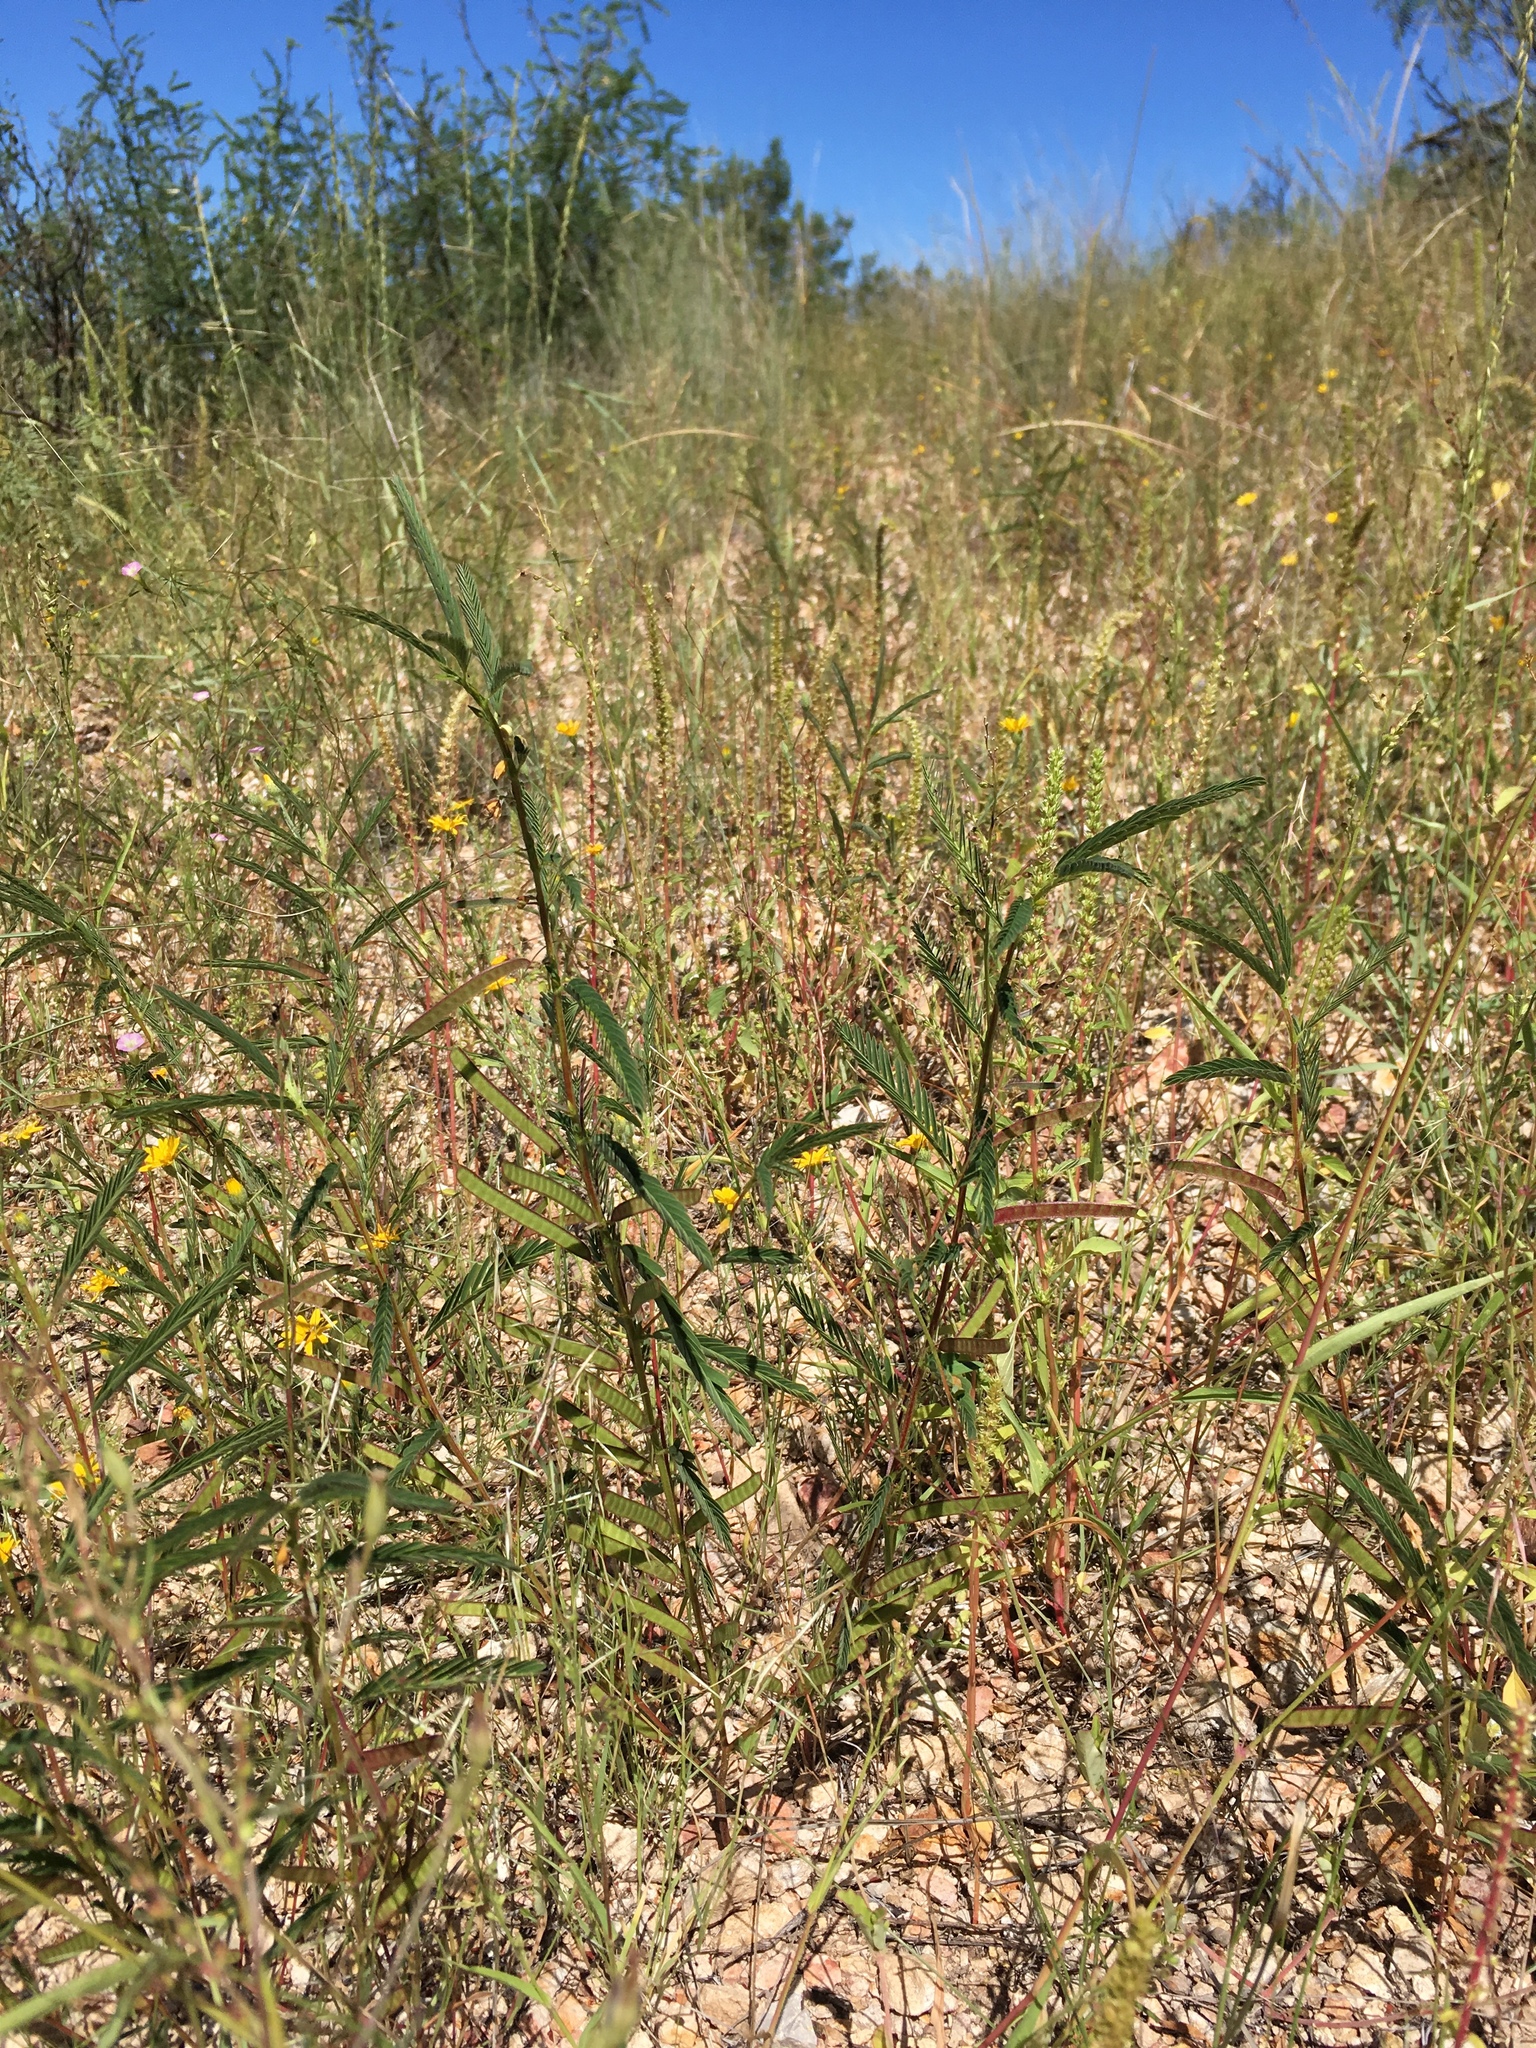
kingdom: Plantae
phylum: Tracheophyta
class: Magnoliopsida
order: Fabales
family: Fabaceae
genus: Chamaecrista
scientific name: Chamaecrista nictitans
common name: Sensitive cassia
